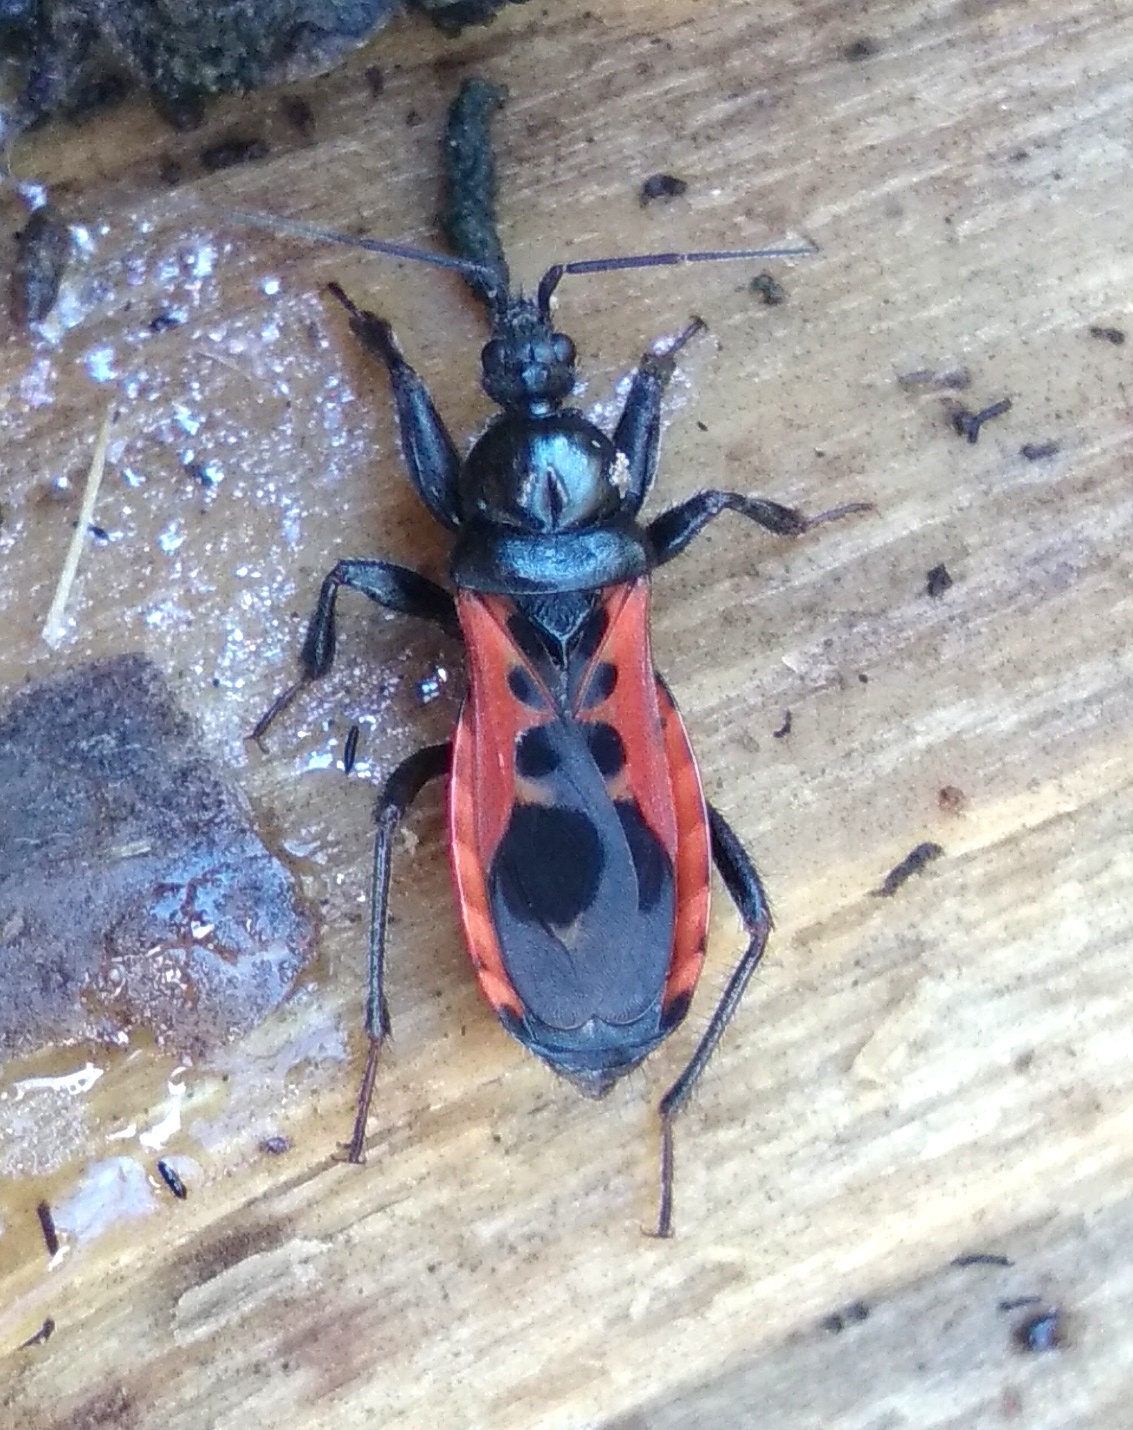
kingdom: Animalia
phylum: Arthropoda
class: Insecta
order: Hemiptera
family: Reduviidae
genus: Peirates
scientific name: Peirates stridulus
